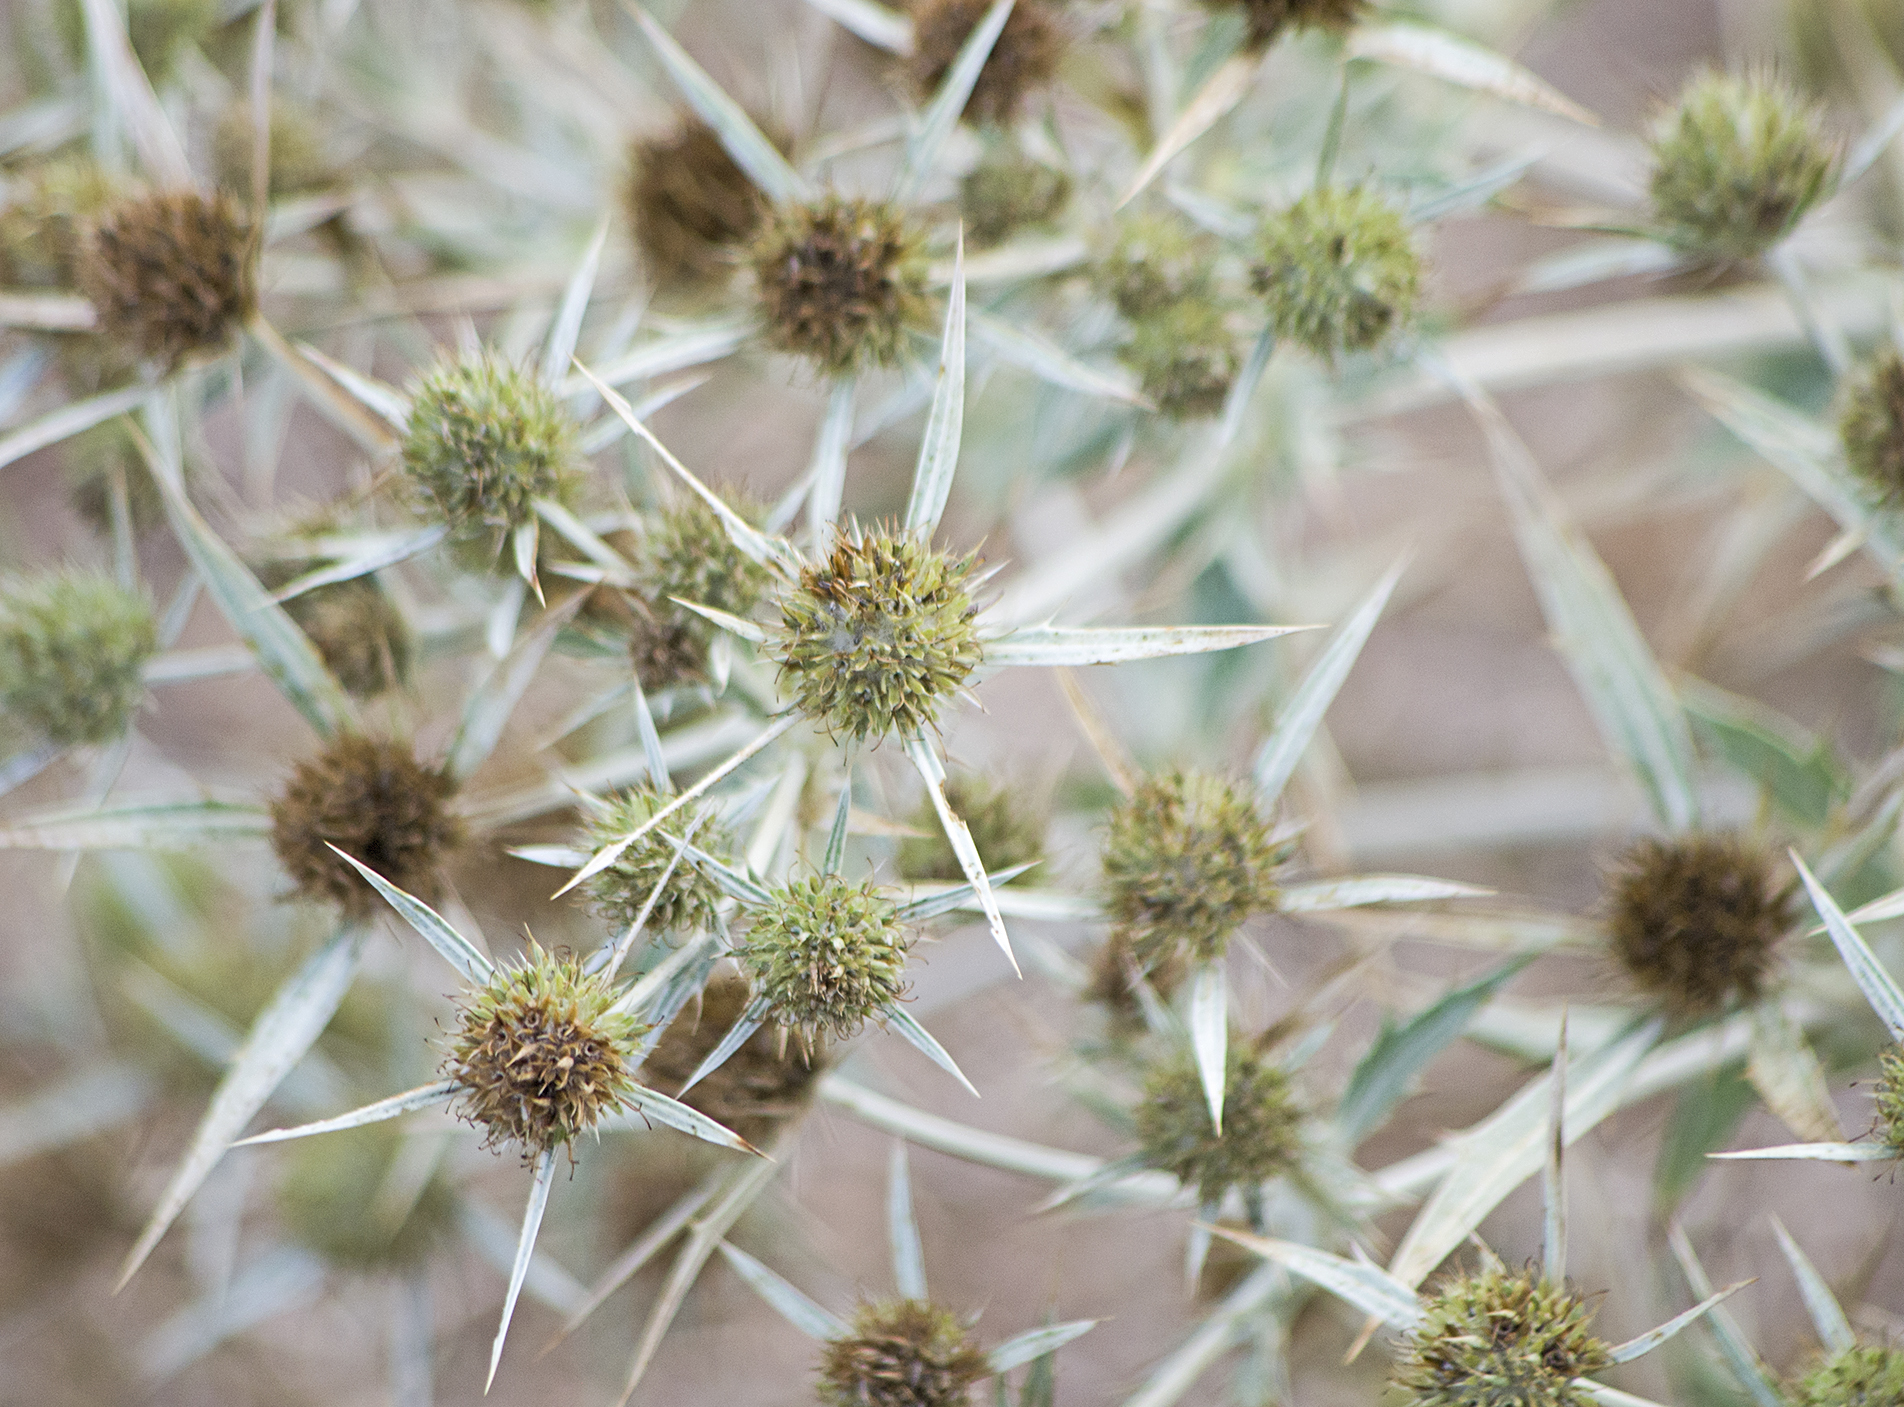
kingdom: Plantae
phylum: Tracheophyta
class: Magnoliopsida
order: Apiales
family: Apiaceae
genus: Eryngium
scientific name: Eryngium campestre
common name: Field eryngo
